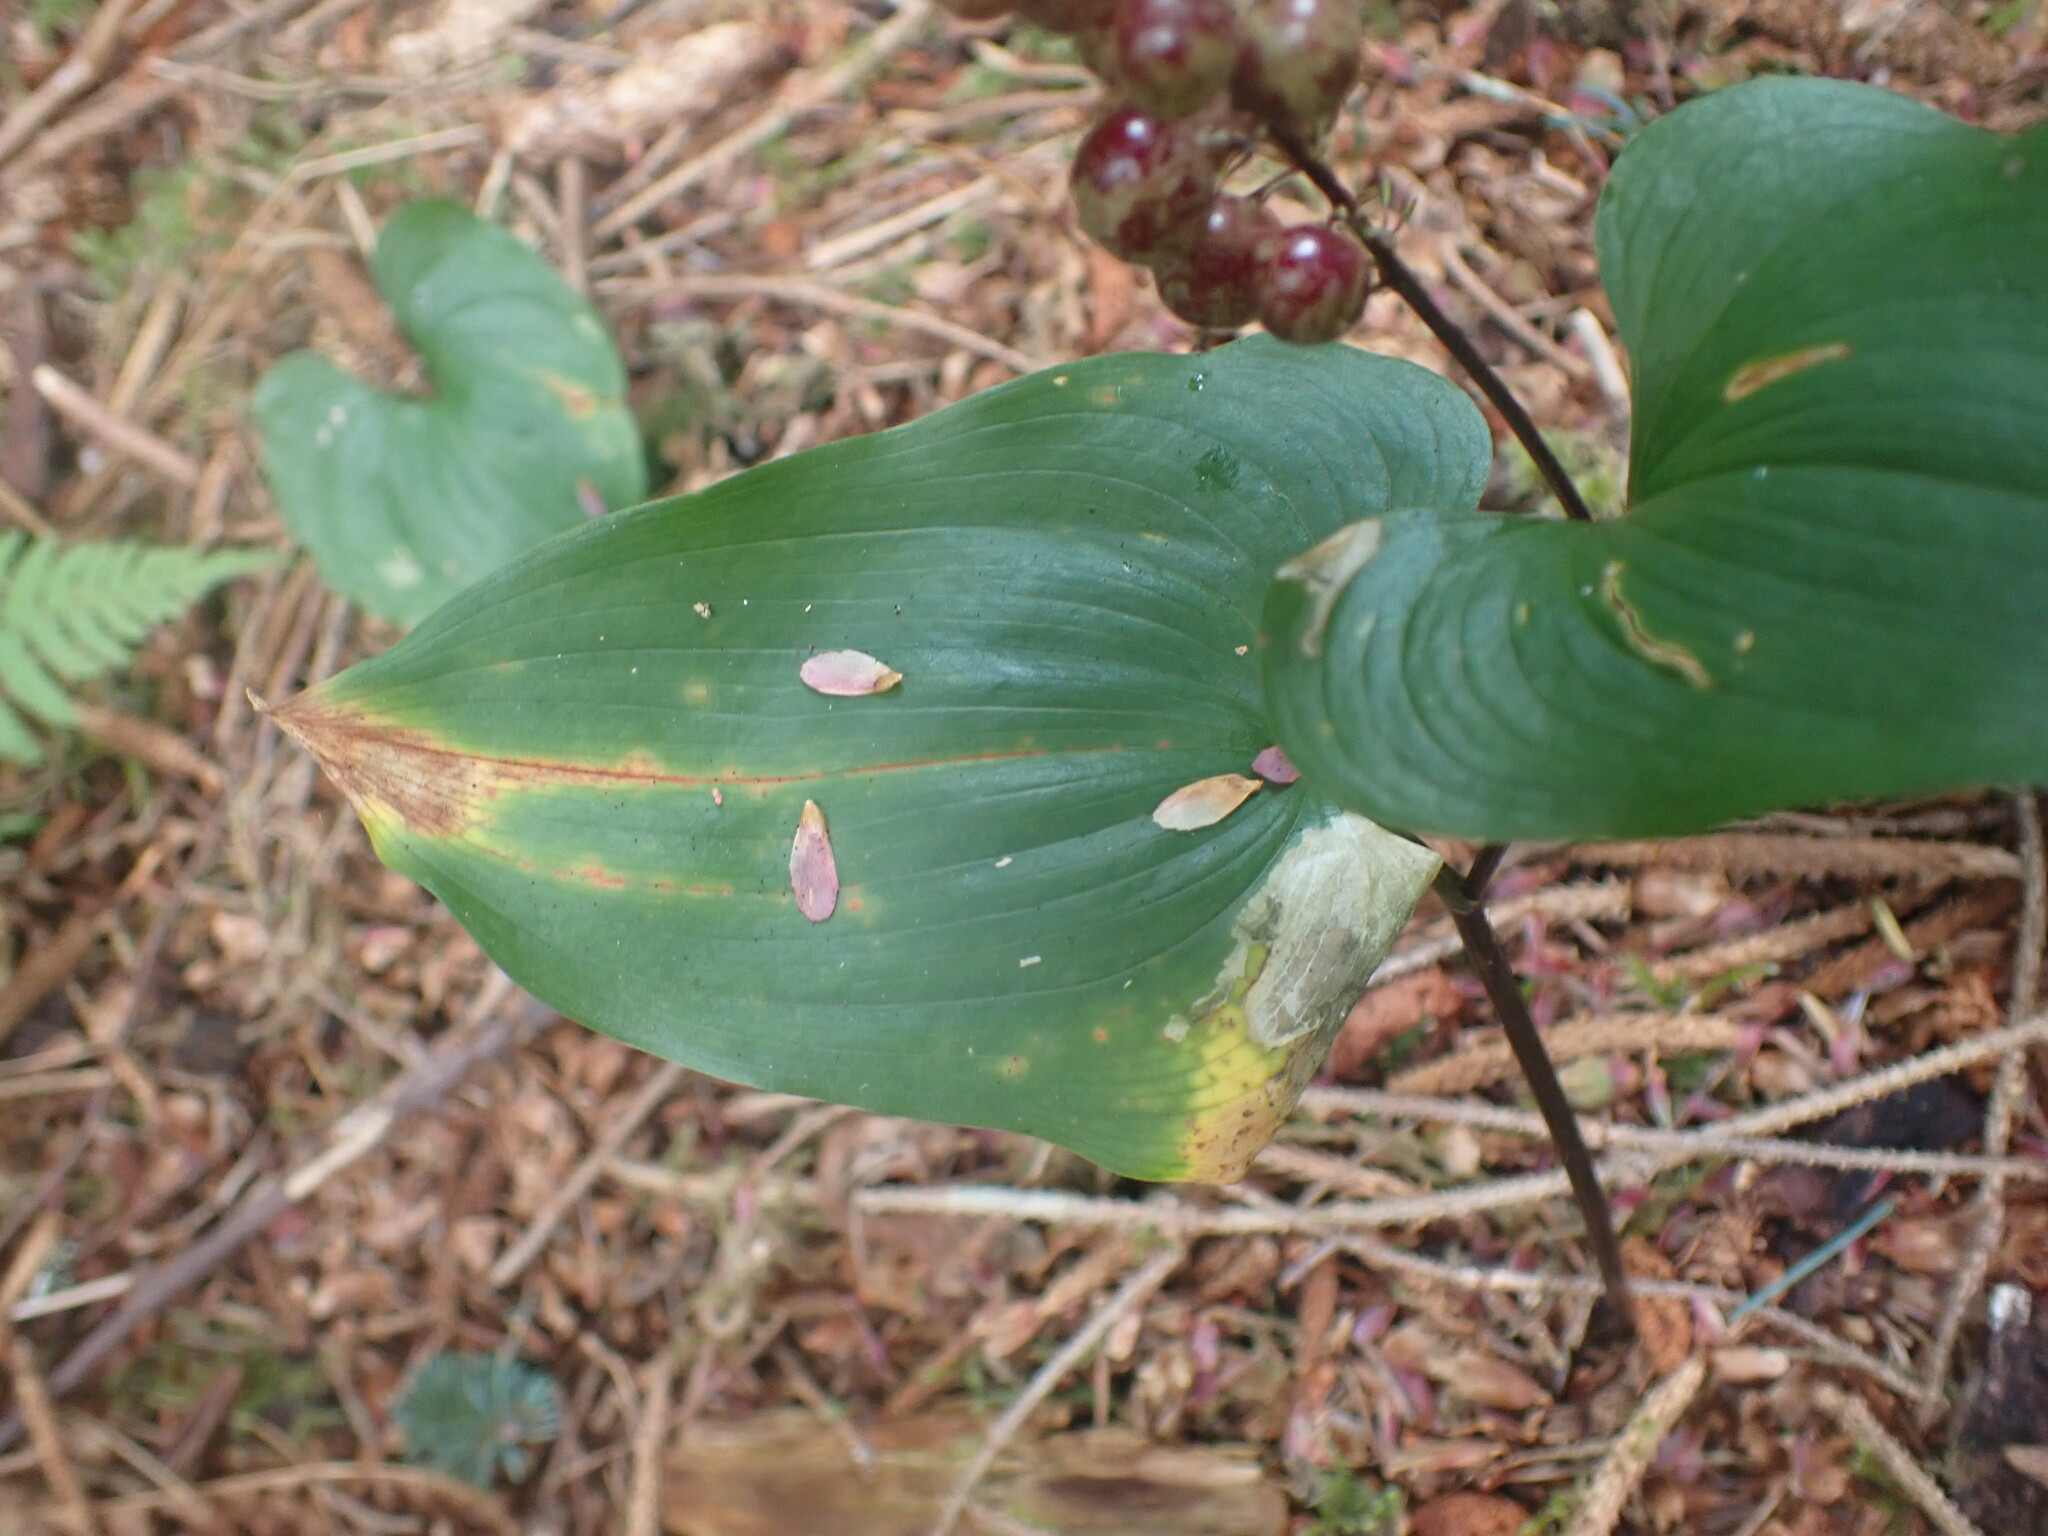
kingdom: Plantae
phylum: Tracheophyta
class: Liliopsida
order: Asparagales
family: Asparagaceae
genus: Maianthemum
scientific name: Maianthemum dilatatum
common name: False lily-of-the-valley
